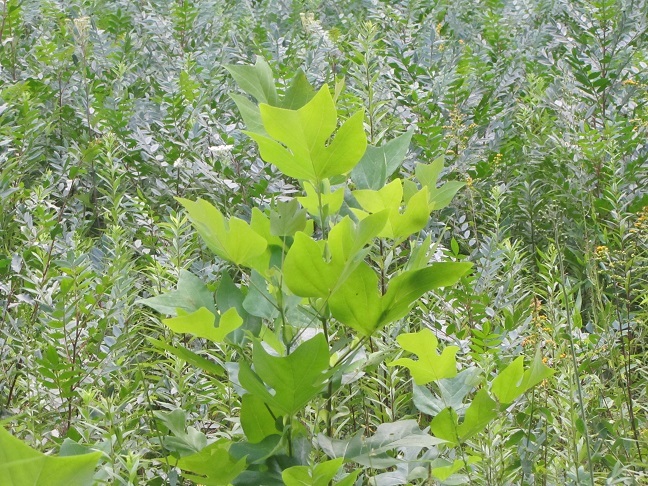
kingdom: Plantae
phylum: Tracheophyta
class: Magnoliopsida
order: Magnoliales
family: Magnoliaceae
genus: Liriodendron
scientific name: Liriodendron tulipifera
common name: Tulip tree
